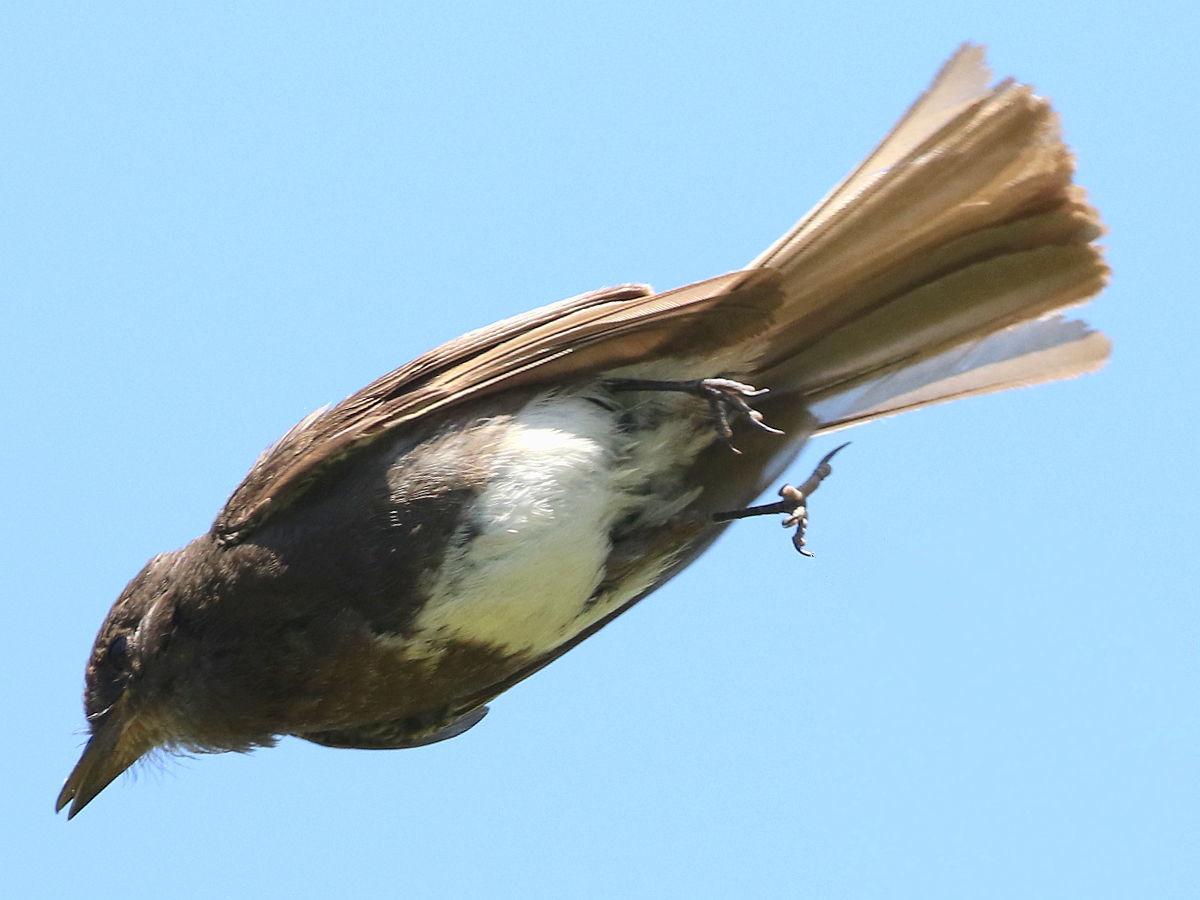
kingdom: Animalia
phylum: Chordata
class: Aves
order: Passeriformes
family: Tyrannidae
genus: Sayornis
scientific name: Sayornis nigricans
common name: Black phoebe
